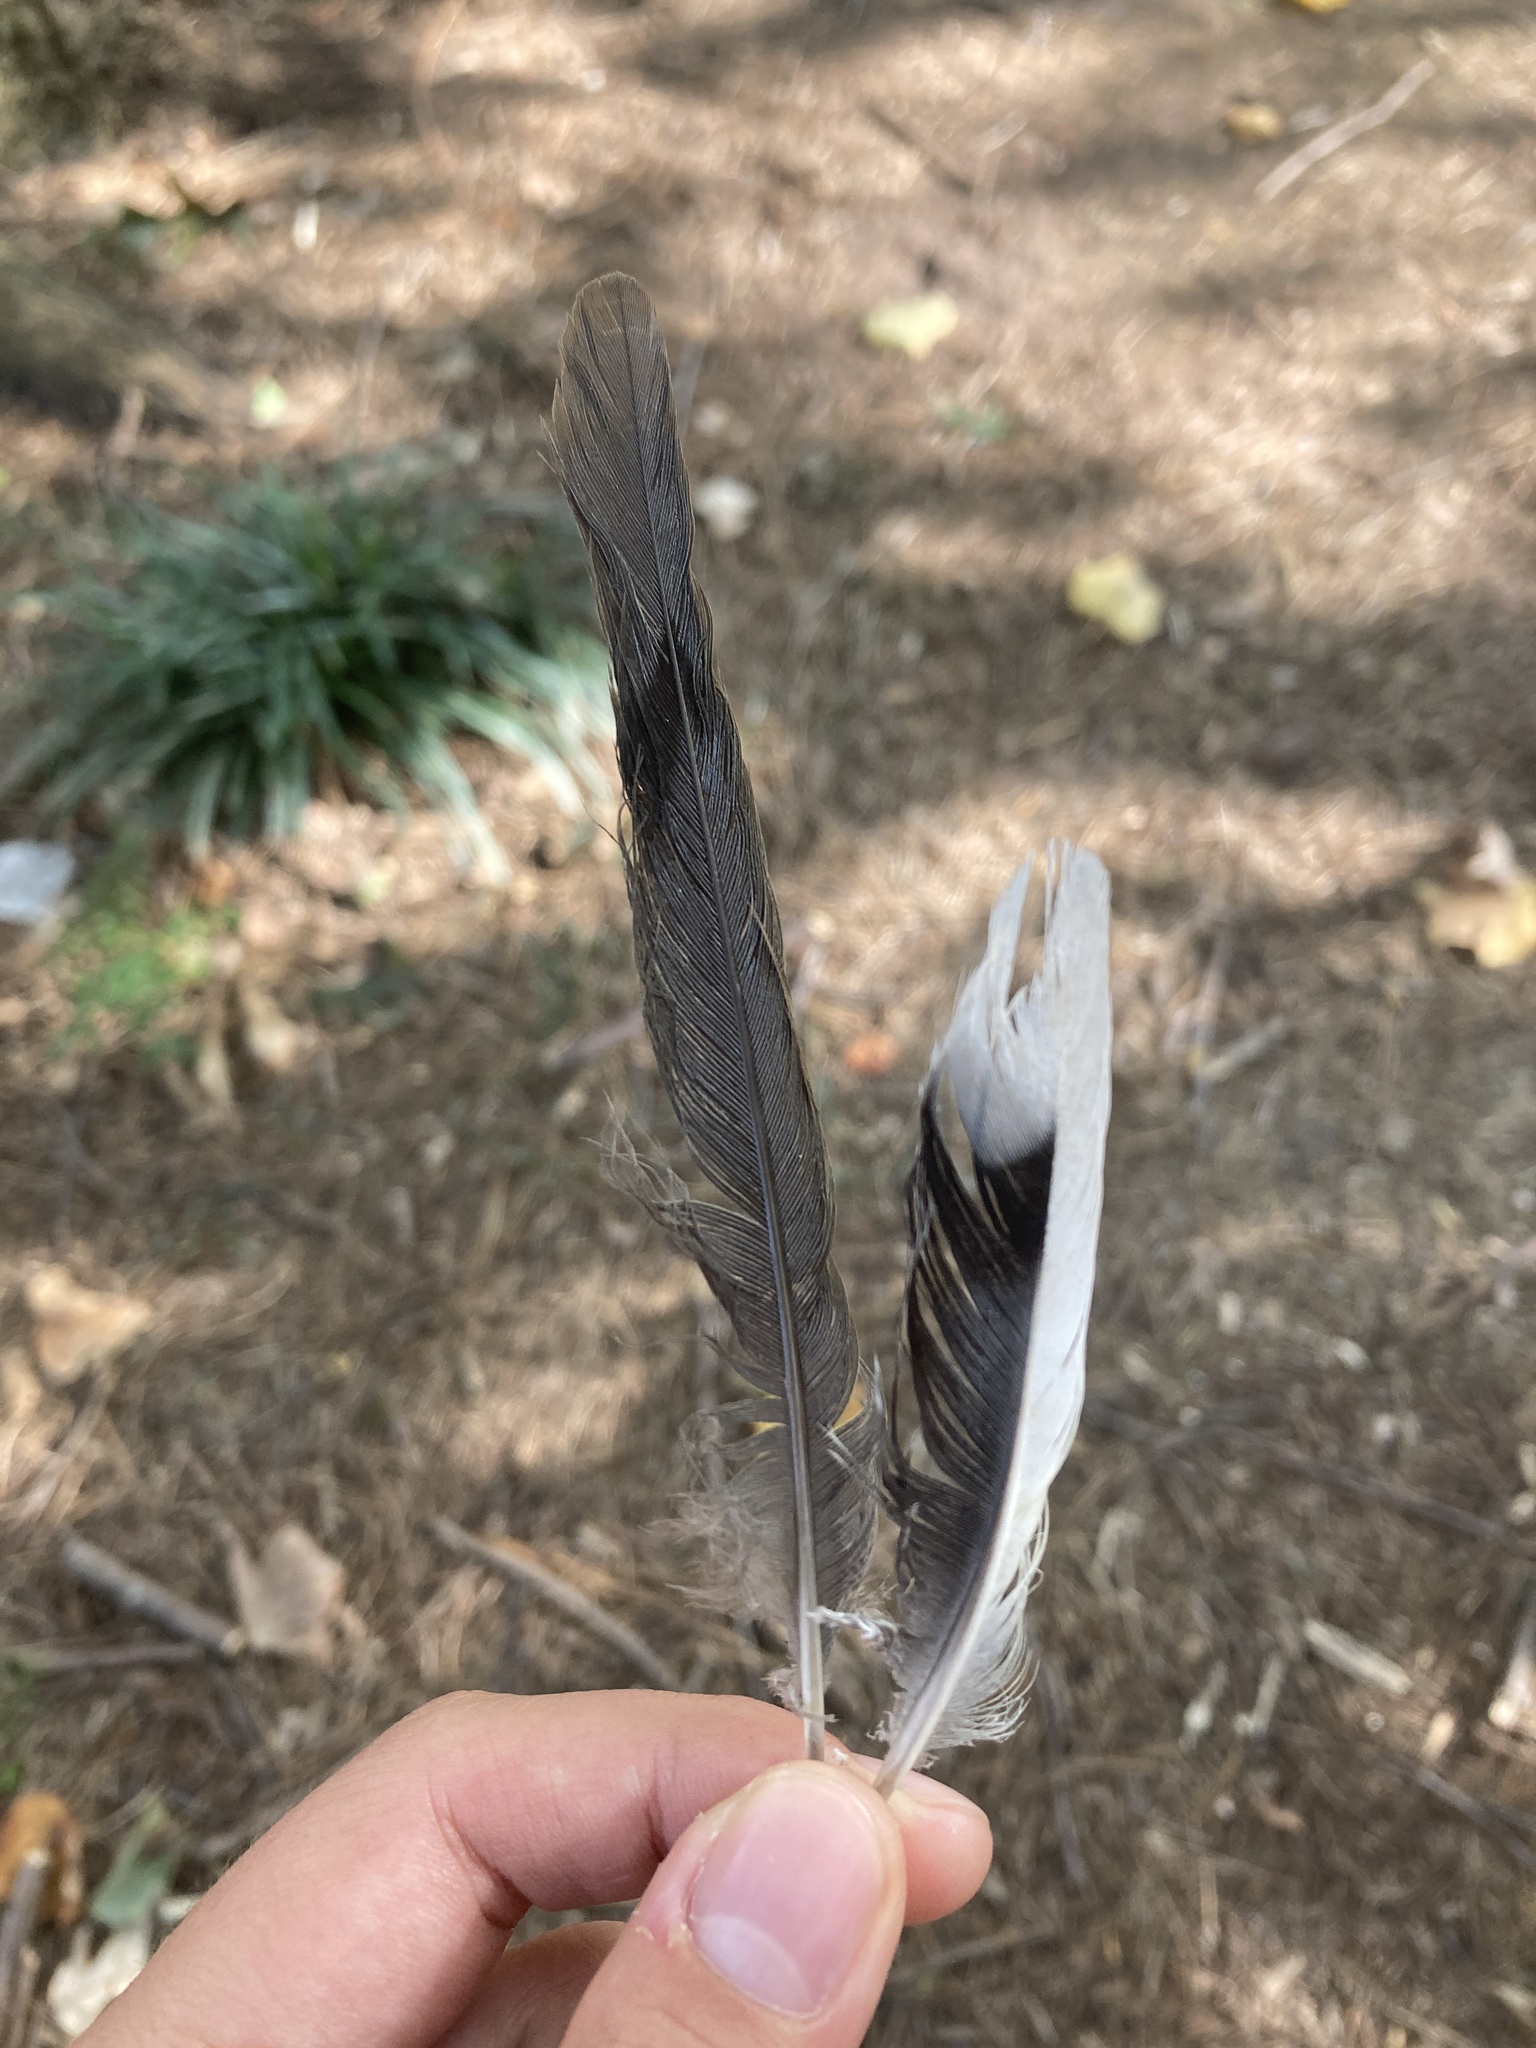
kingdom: Animalia
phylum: Chordata
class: Aves
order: Columbiformes
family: Columbidae
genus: Zenaida
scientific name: Zenaida macroura
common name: Mourning dove
